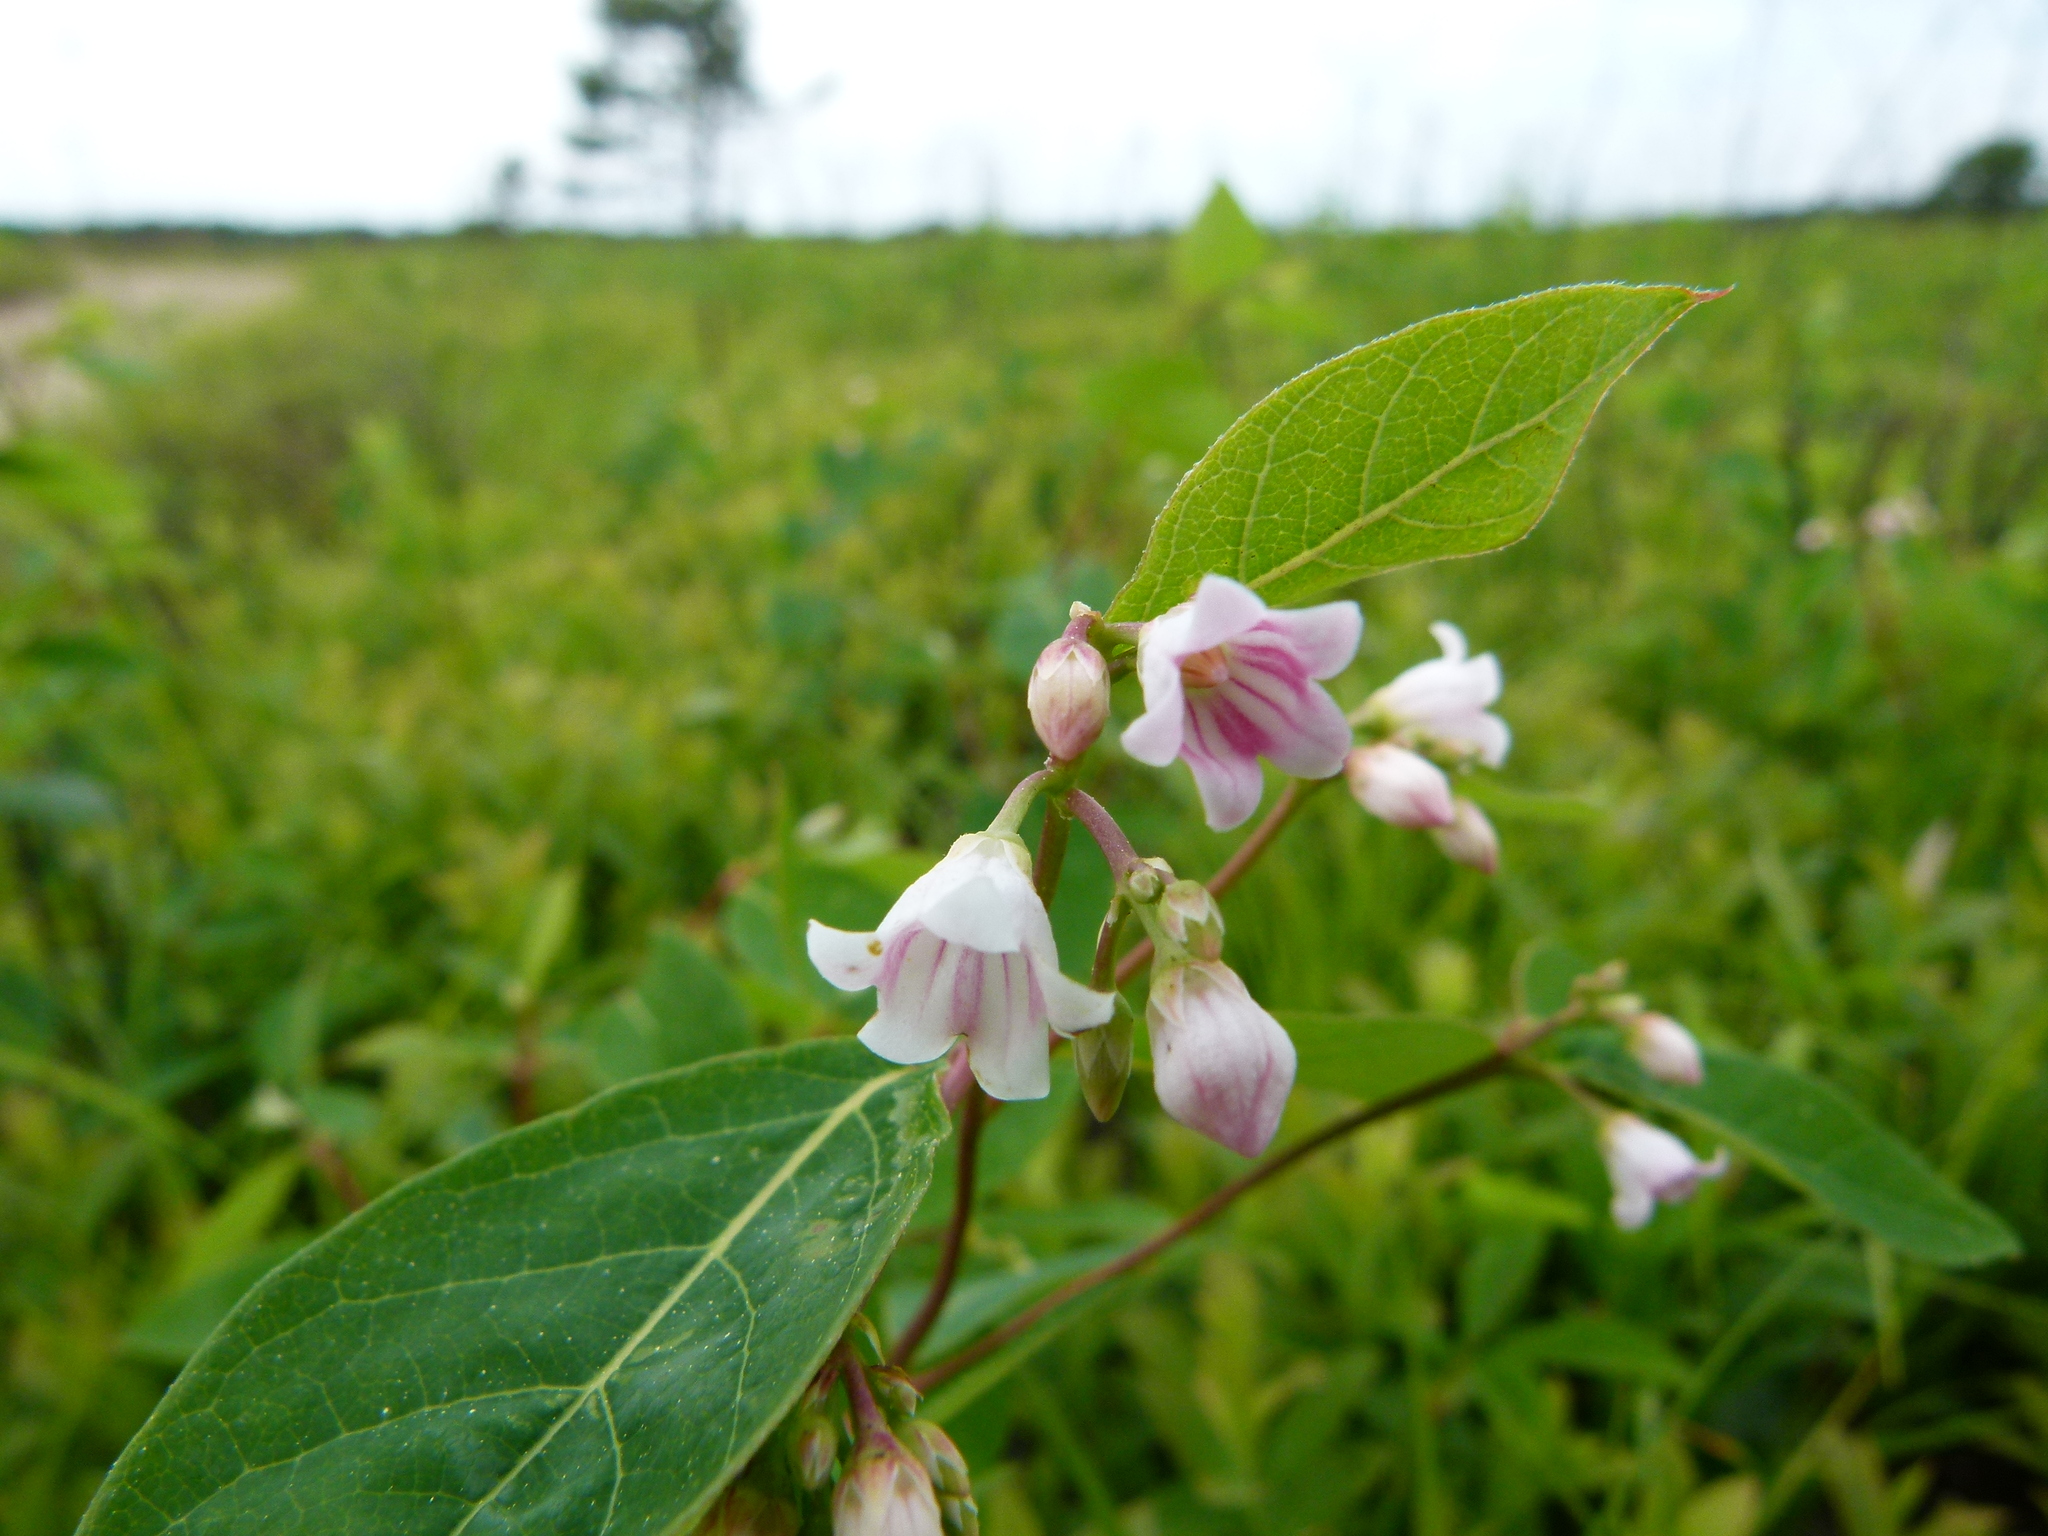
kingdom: Plantae
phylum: Tracheophyta
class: Magnoliopsida
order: Gentianales
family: Apocynaceae
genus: Apocynum
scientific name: Apocynum androsaemifolium
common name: Spreading dogbane
